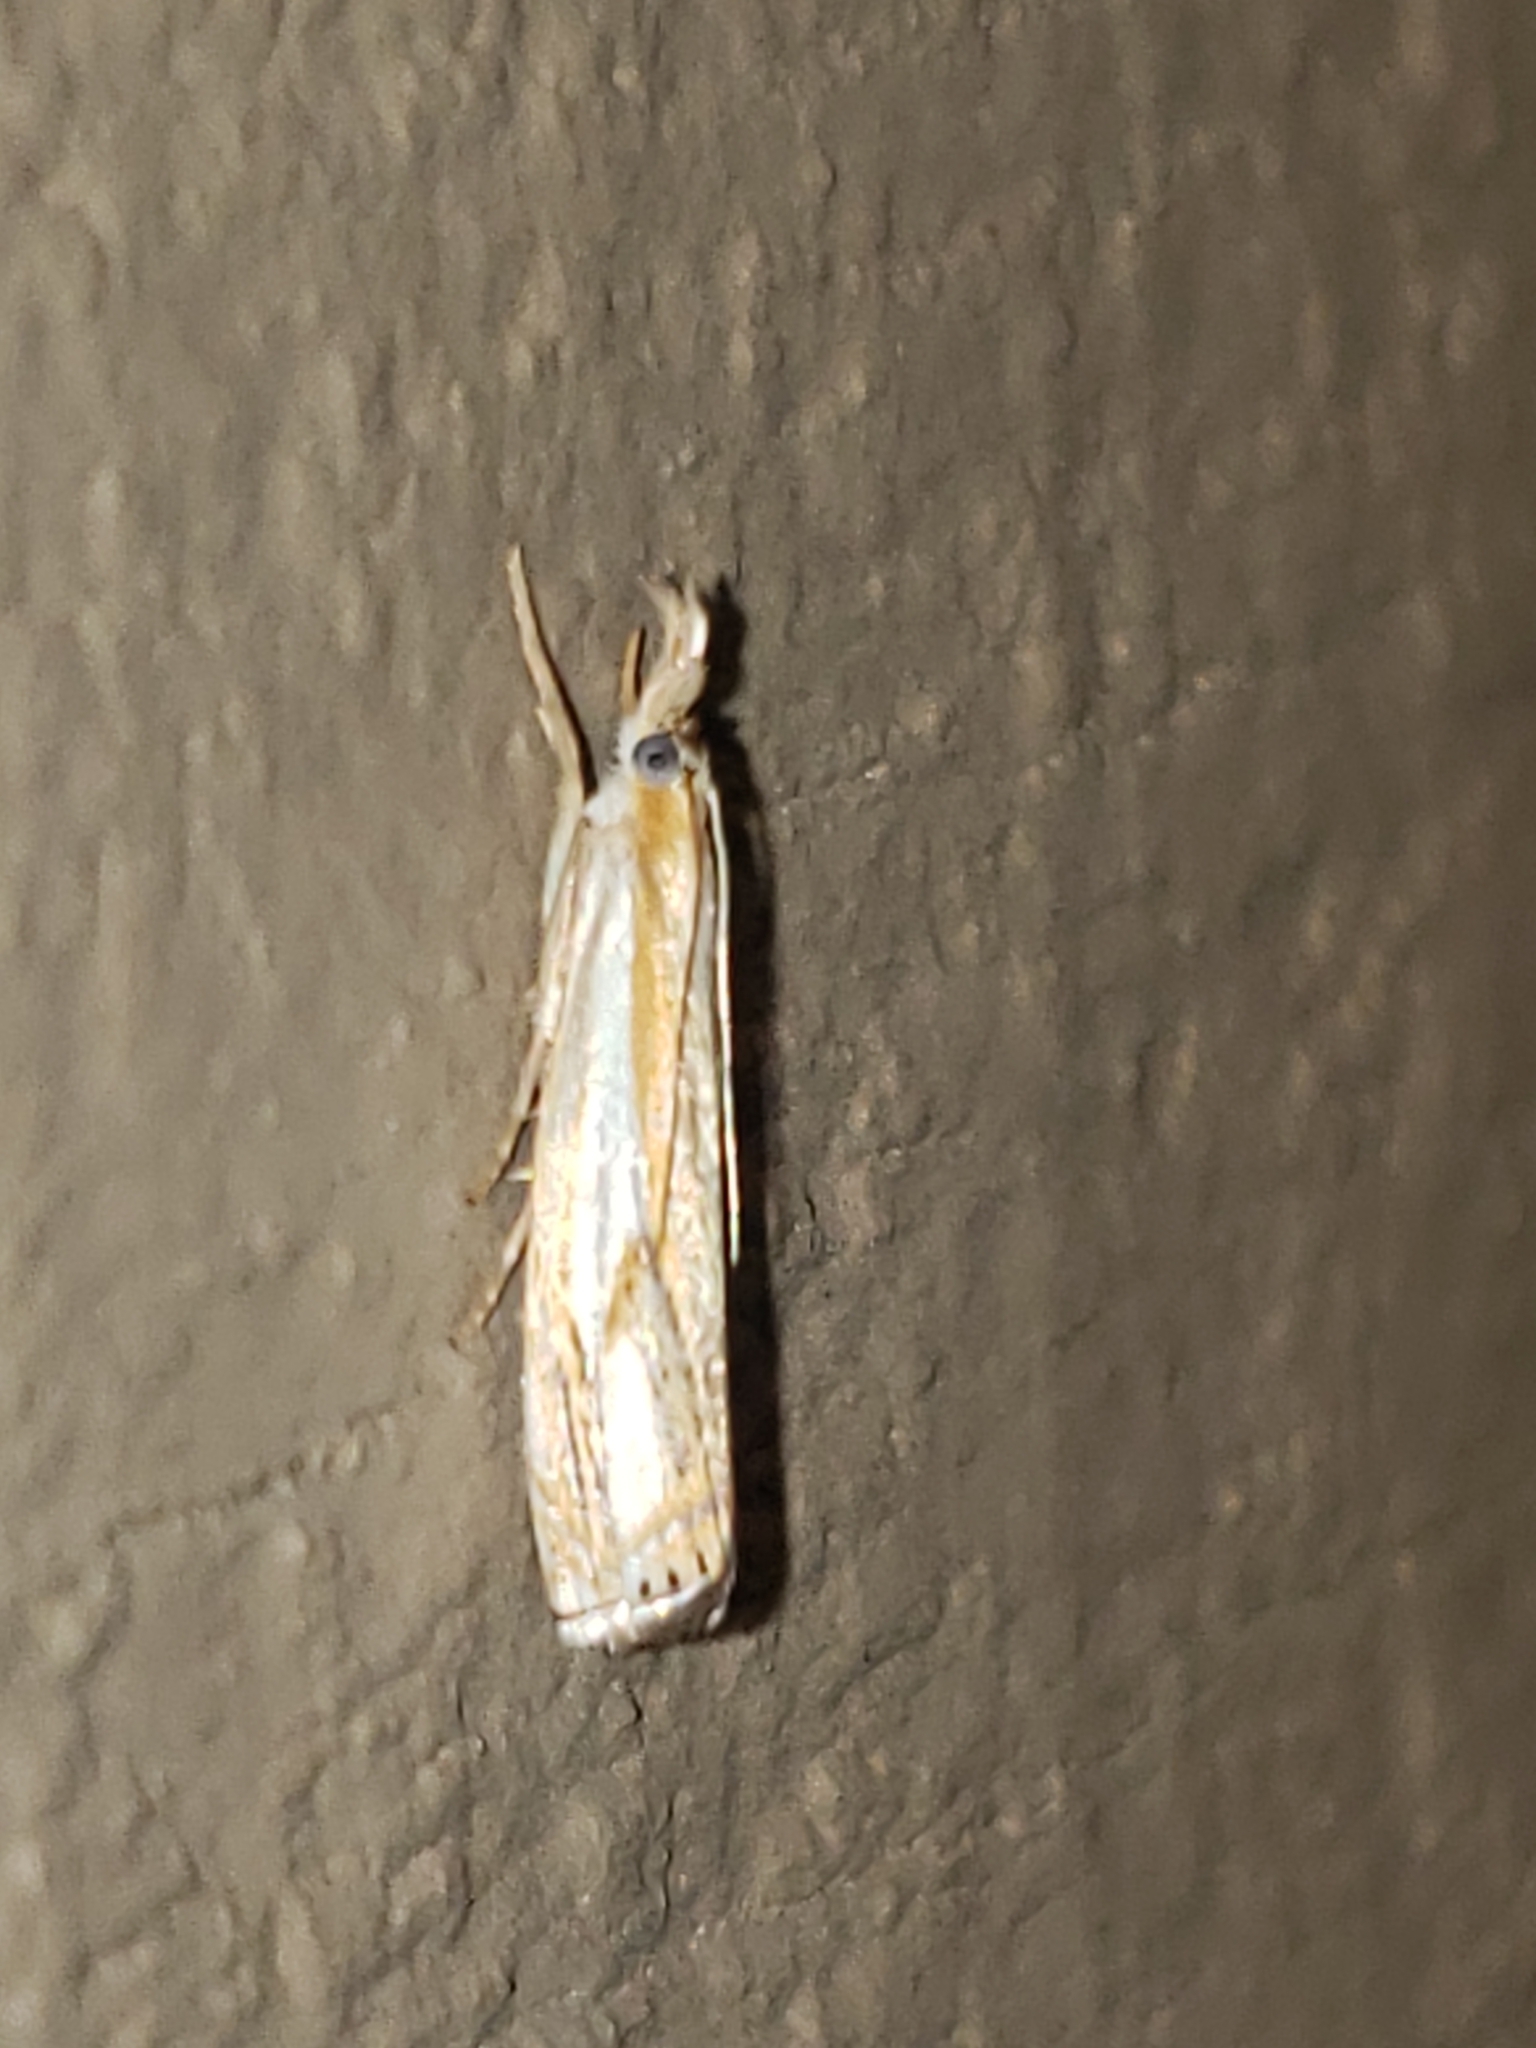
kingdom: Animalia
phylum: Arthropoda
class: Insecta
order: Lepidoptera
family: Crambidae
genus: Crambus
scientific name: Crambus agitatellus
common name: Double-banded grass-veneer
